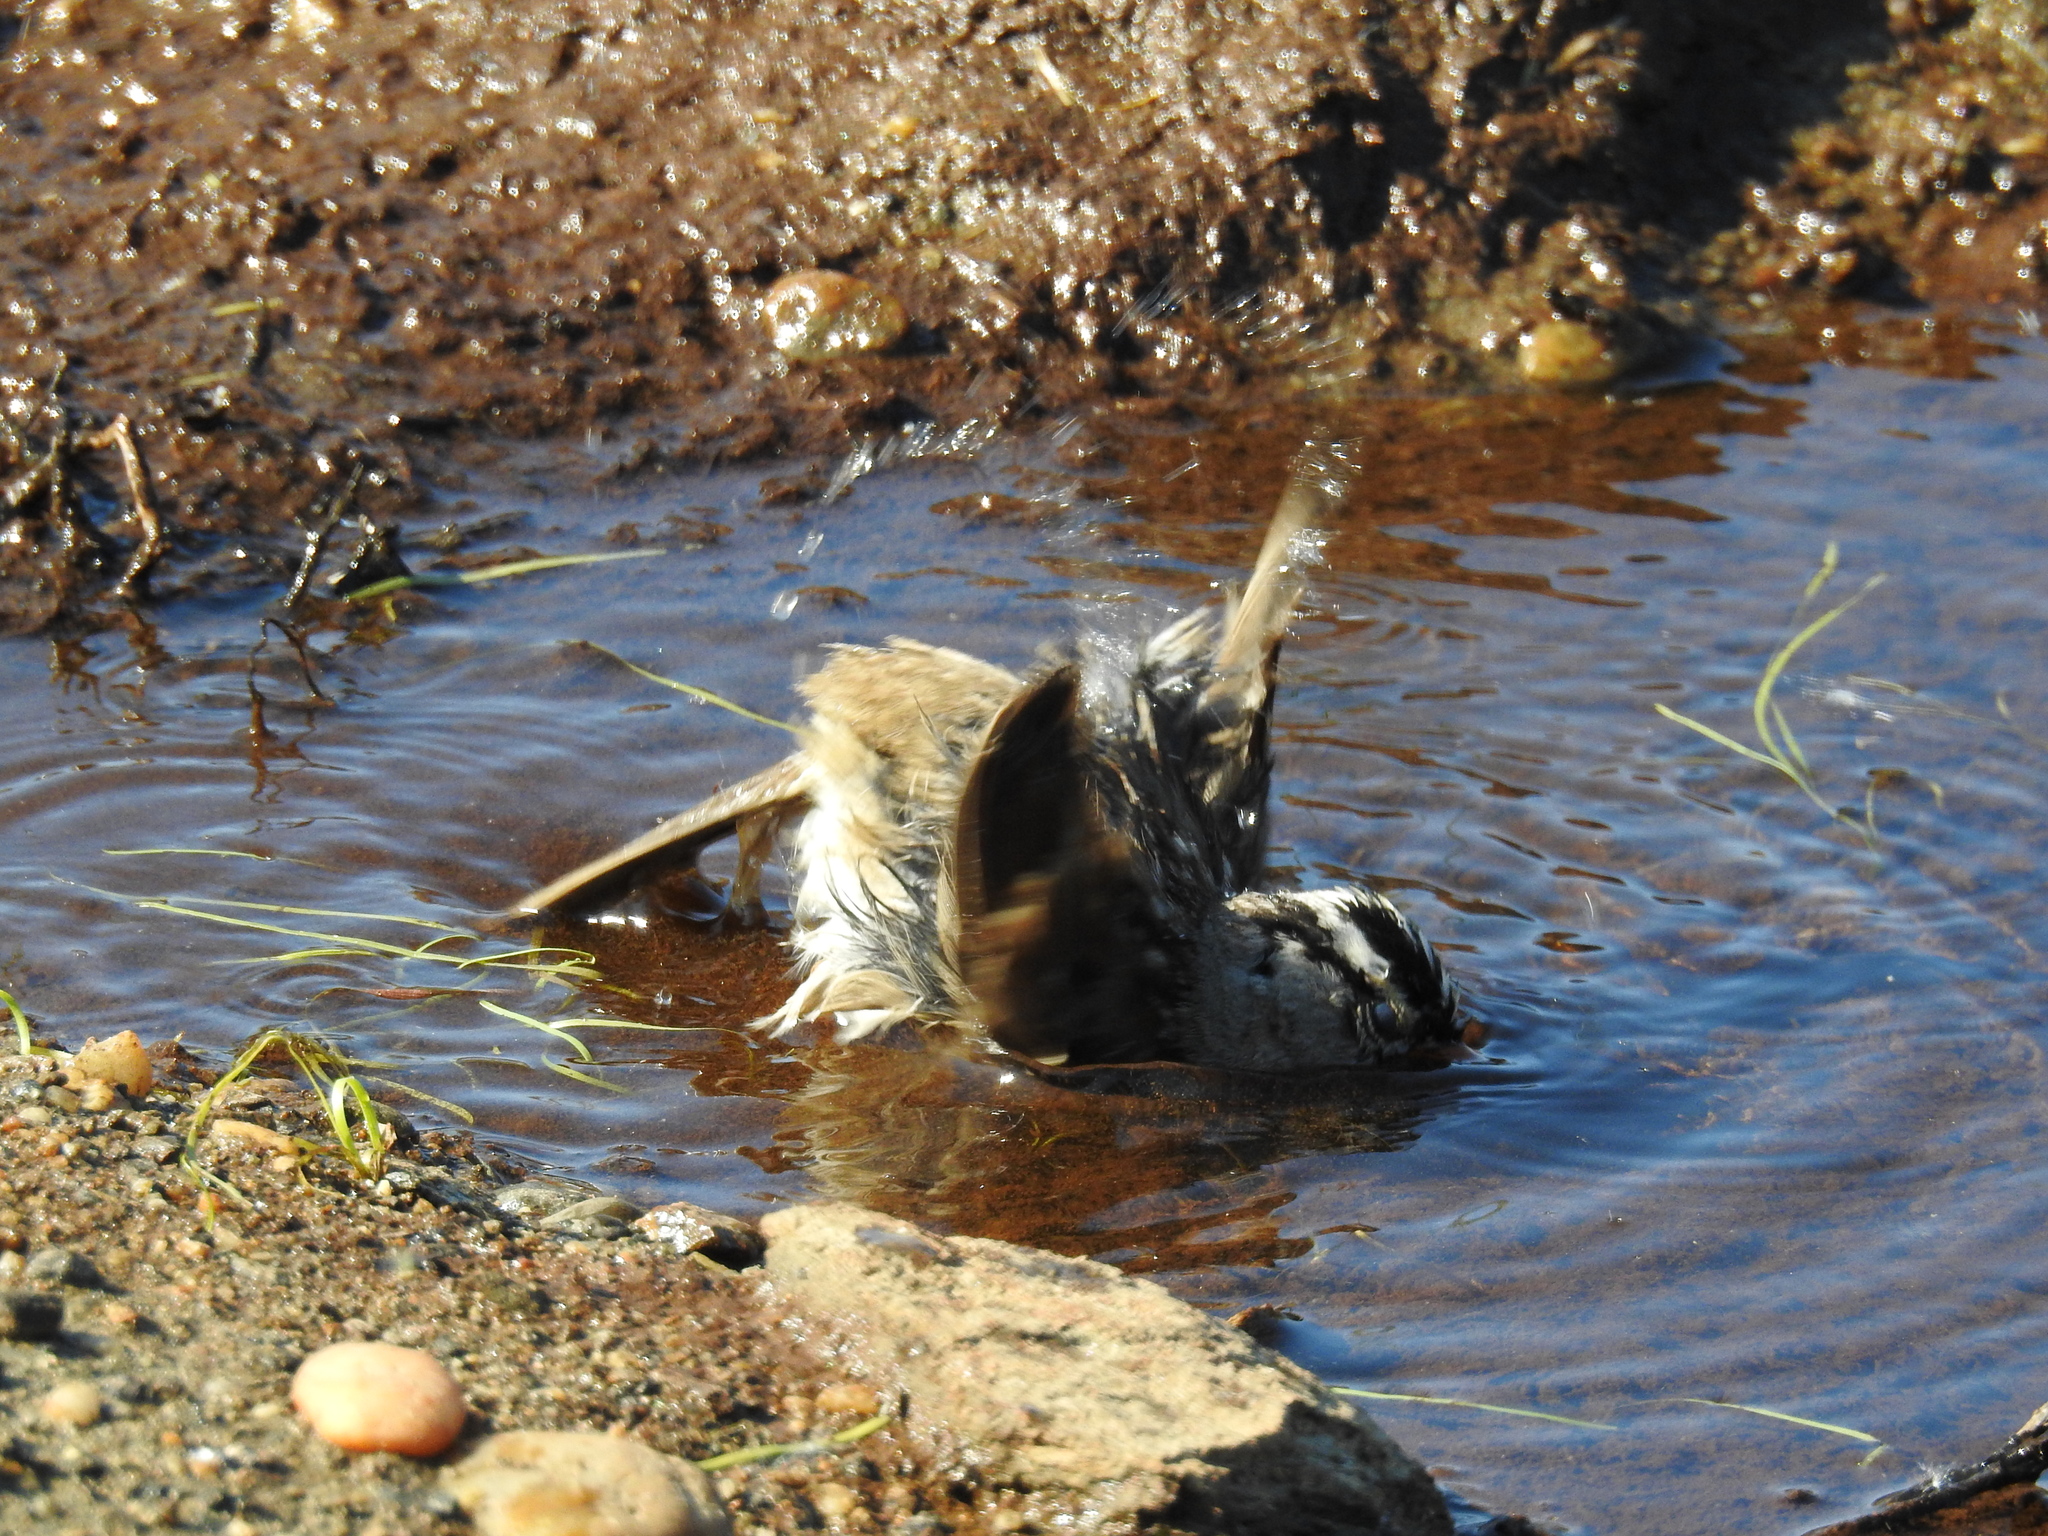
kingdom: Animalia
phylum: Chordata
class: Aves
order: Passeriformes
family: Passerellidae
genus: Zonotrichia
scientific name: Zonotrichia leucophrys
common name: White-crowned sparrow
